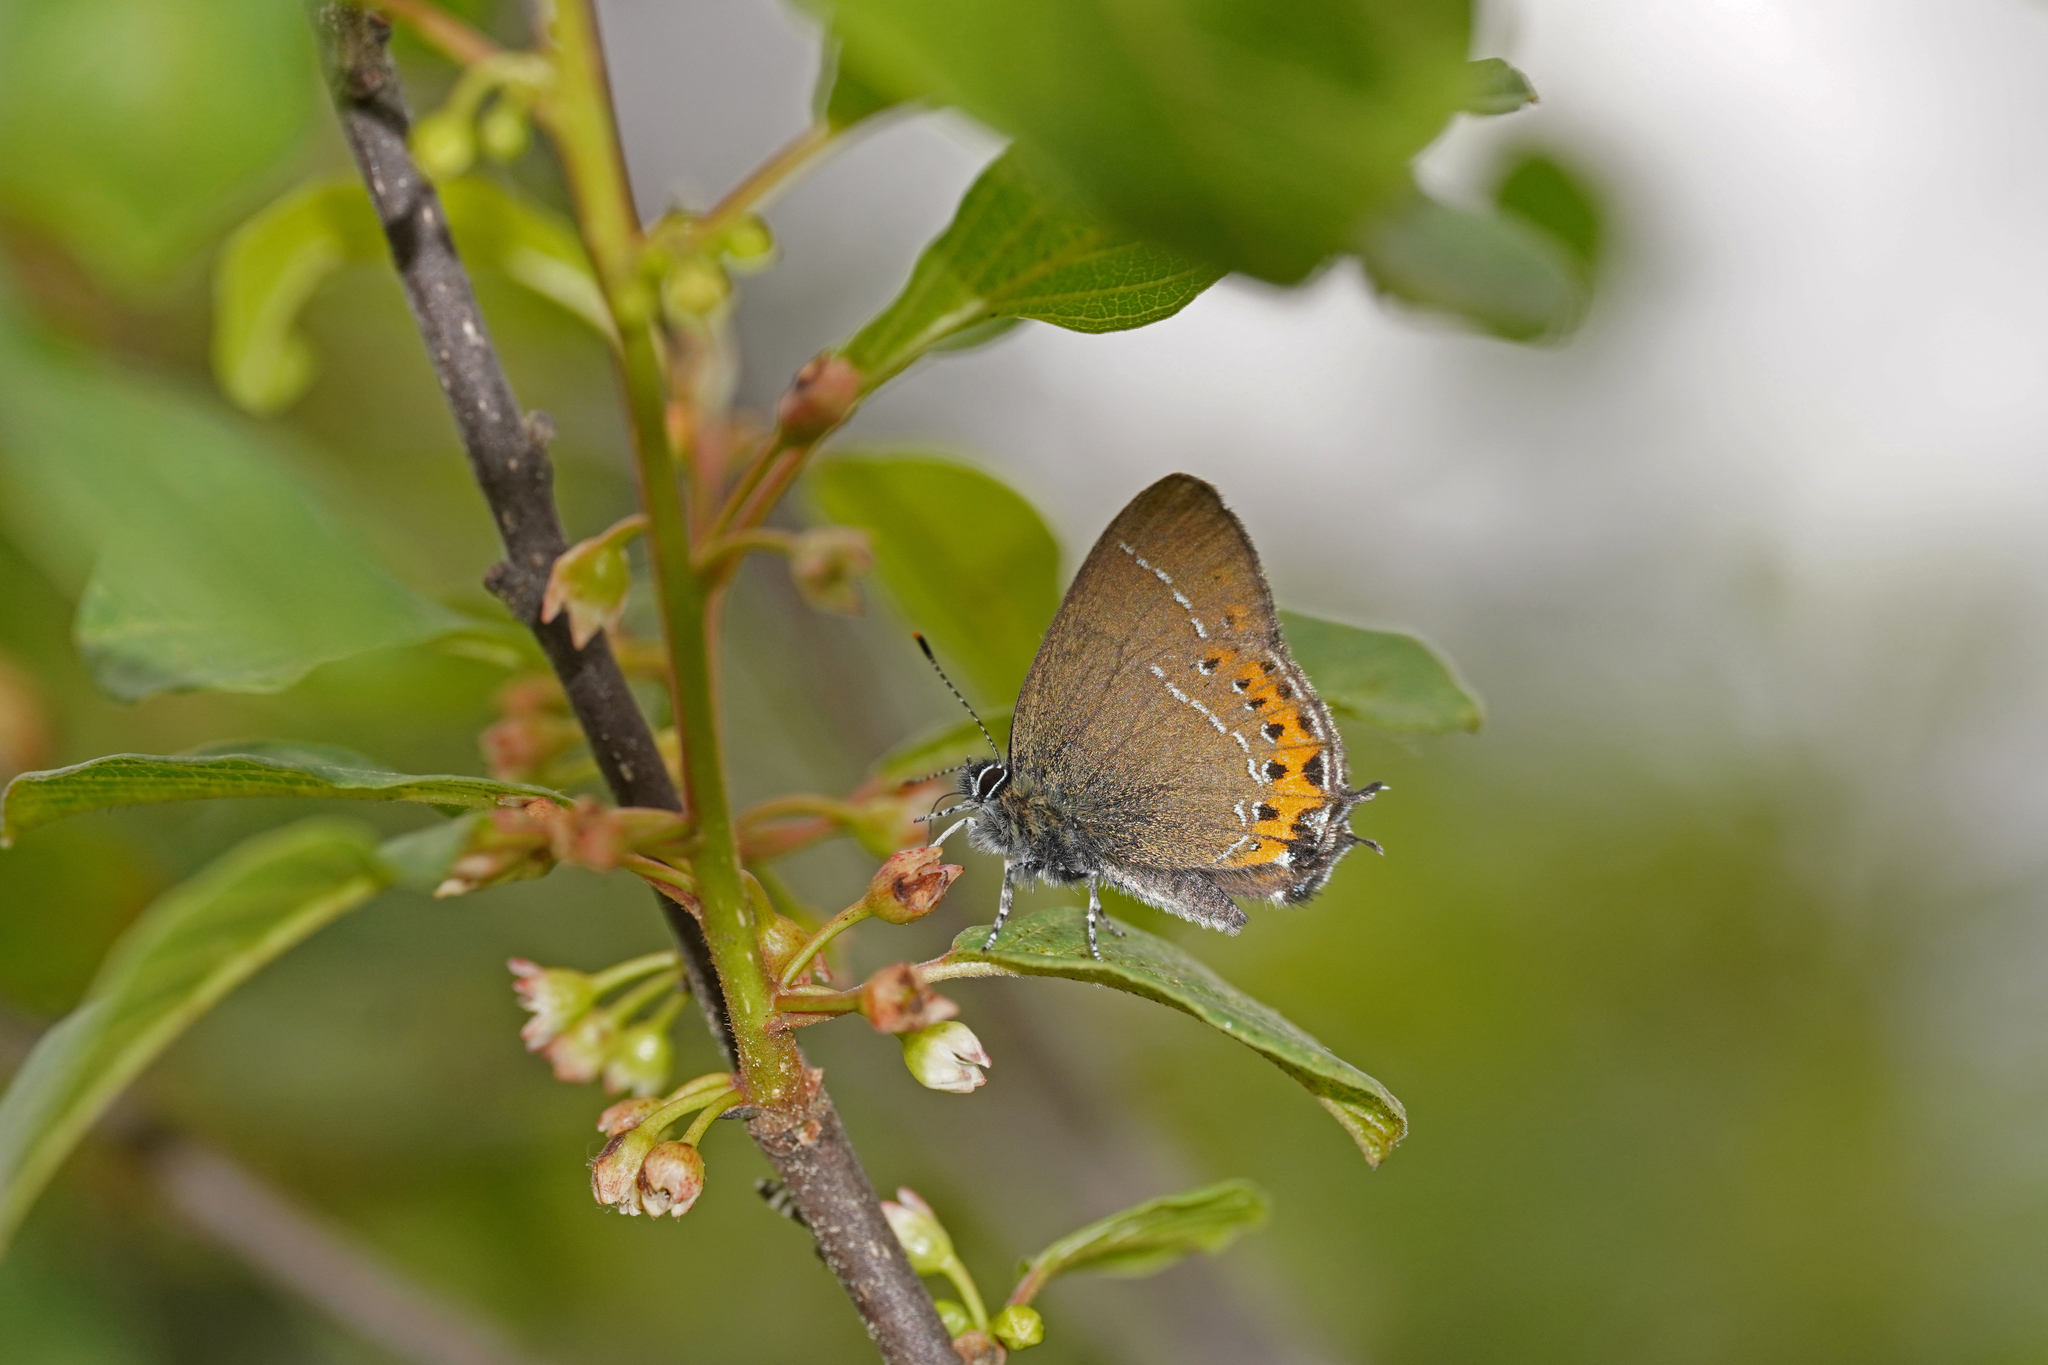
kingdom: Animalia
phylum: Arthropoda
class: Insecta
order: Lepidoptera
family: Lycaenidae
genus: Fixsenia
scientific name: Fixsenia pruni
